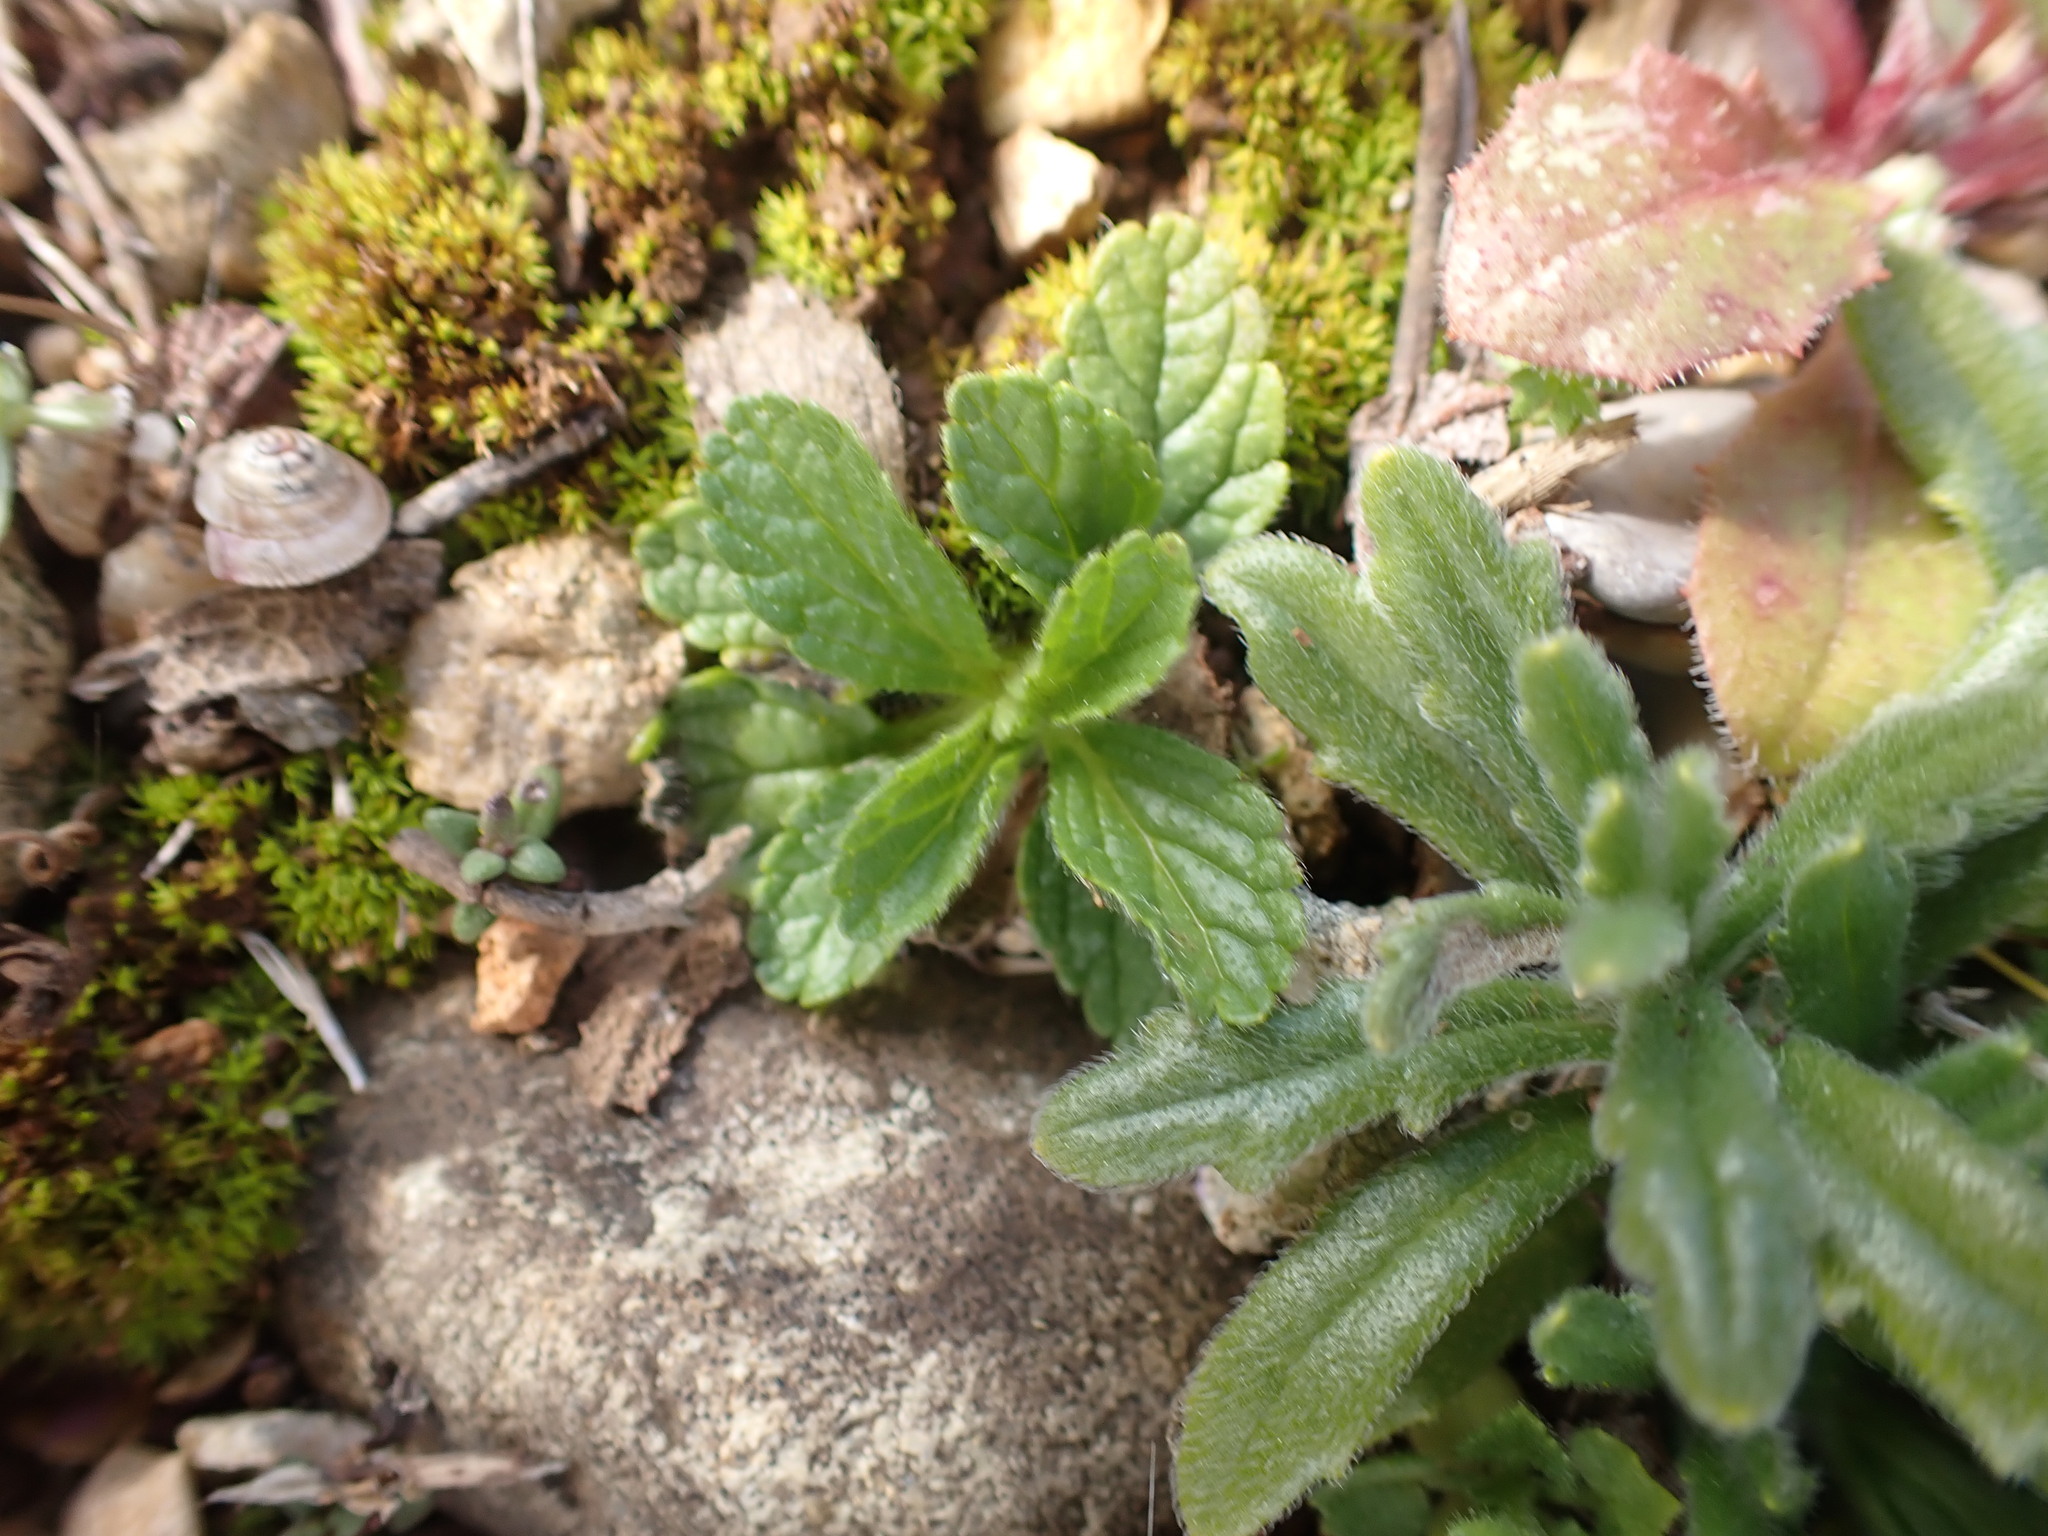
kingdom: Plantae
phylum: Tracheophyta
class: Magnoliopsida
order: Lamiales
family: Lamiaceae
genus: Sideritis
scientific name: Sideritis romana
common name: Simplebeak ironwort
